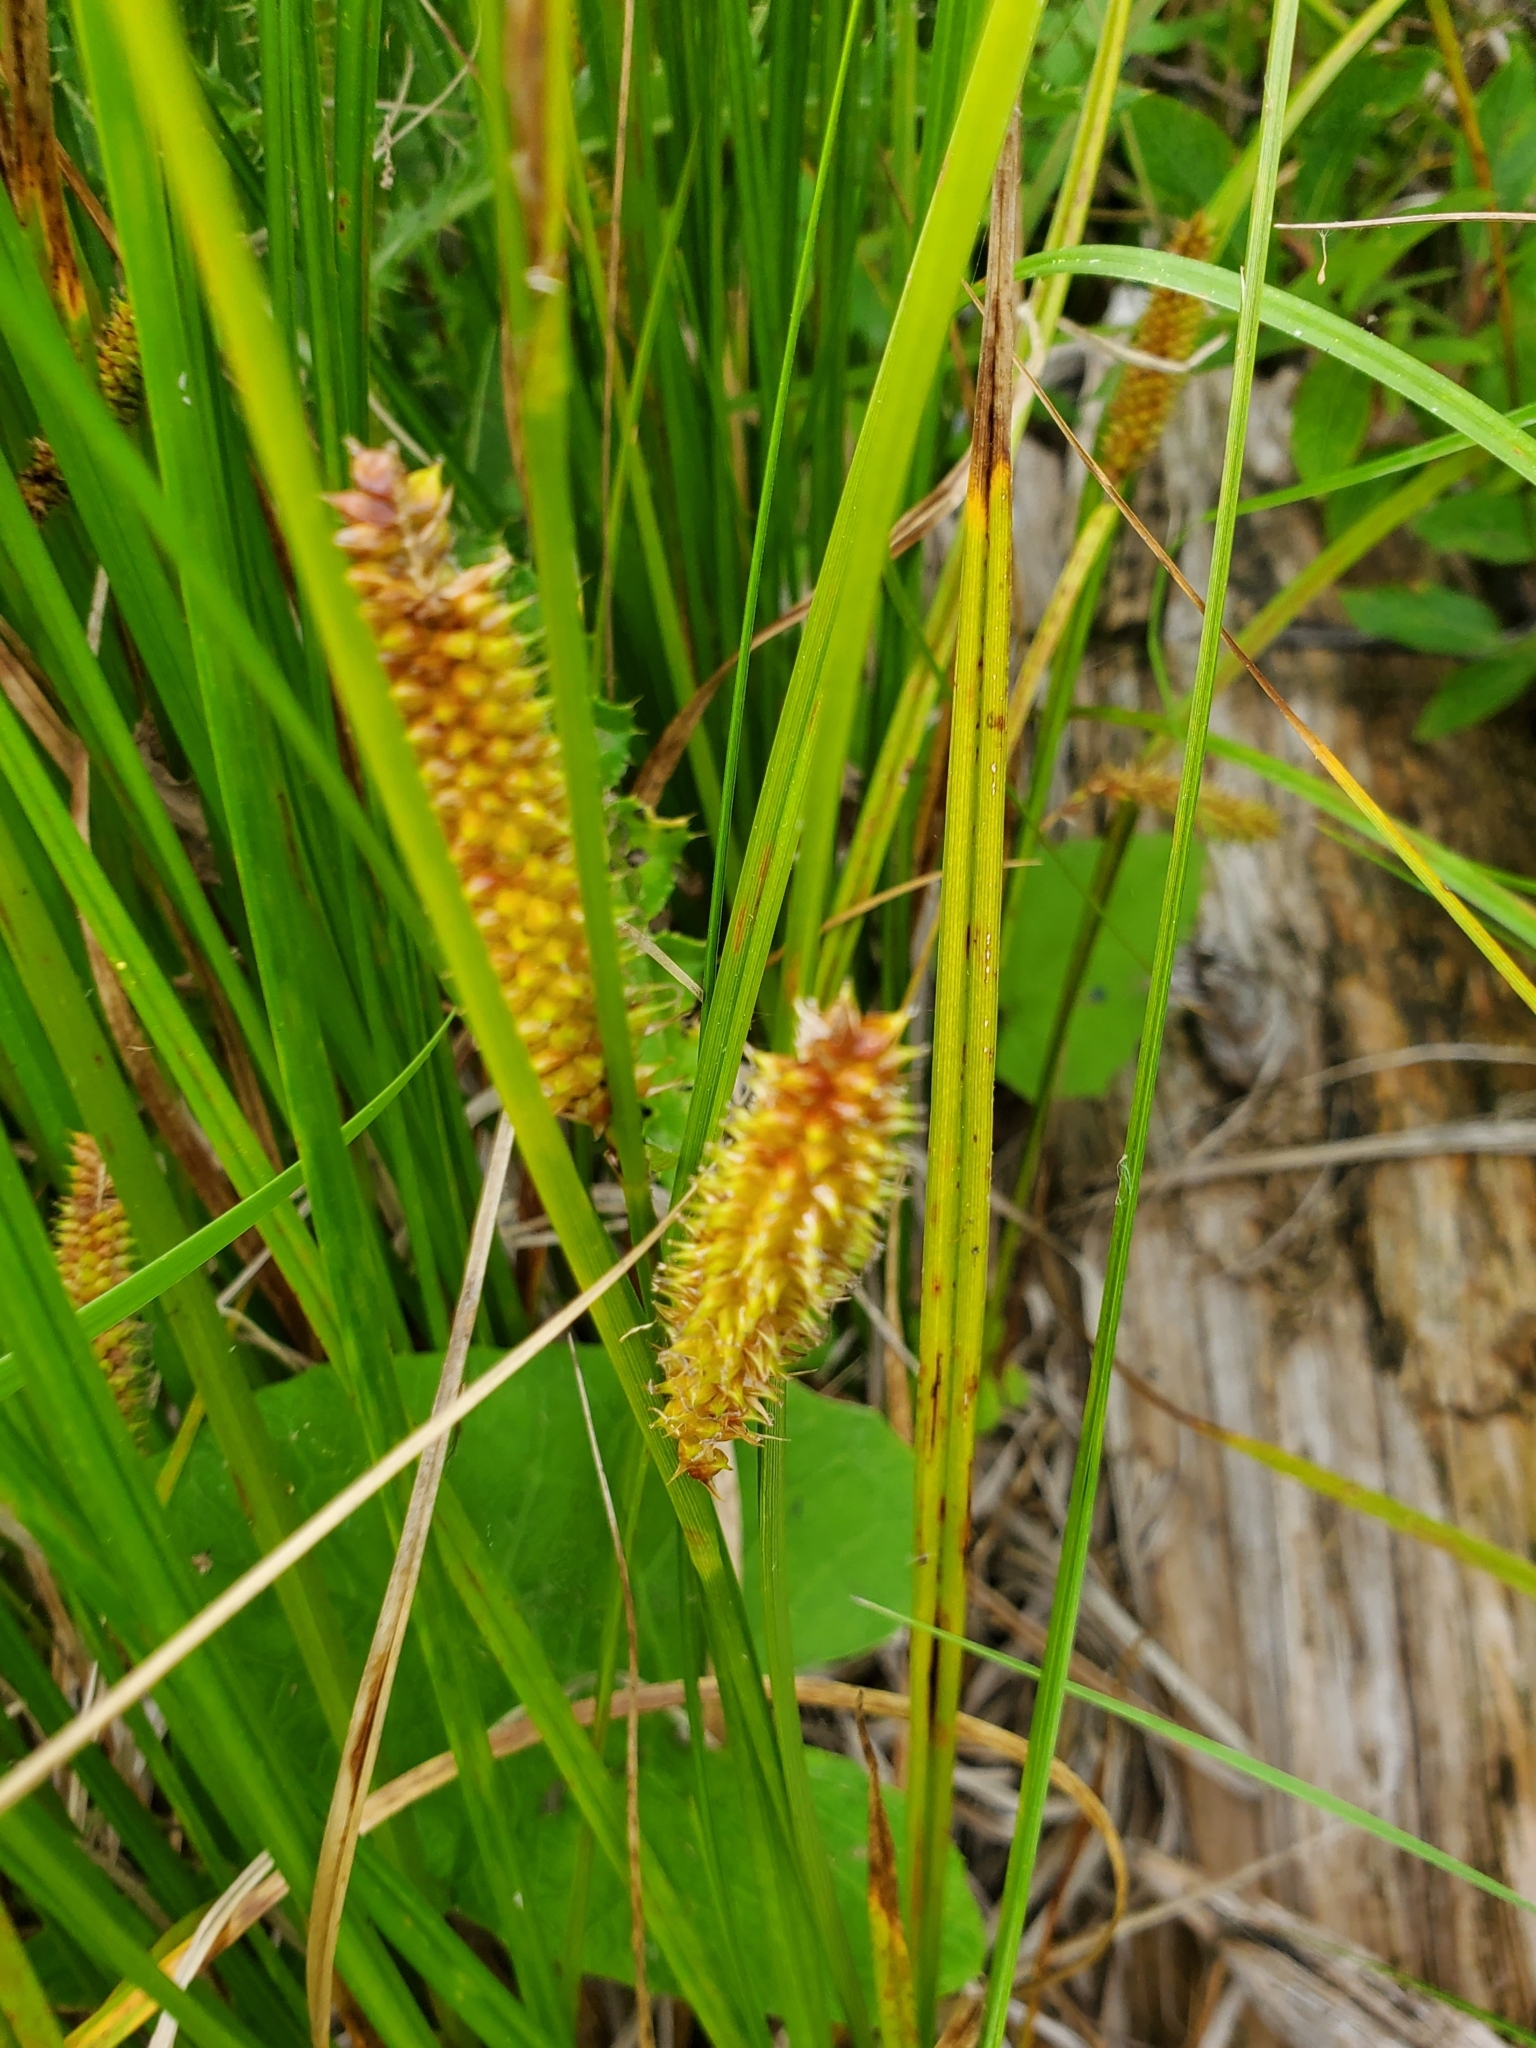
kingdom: Plantae
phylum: Tracheophyta
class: Liliopsida
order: Poales
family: Cyperaceae
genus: Carex
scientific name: Carex utriculata
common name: Beaked sedge
